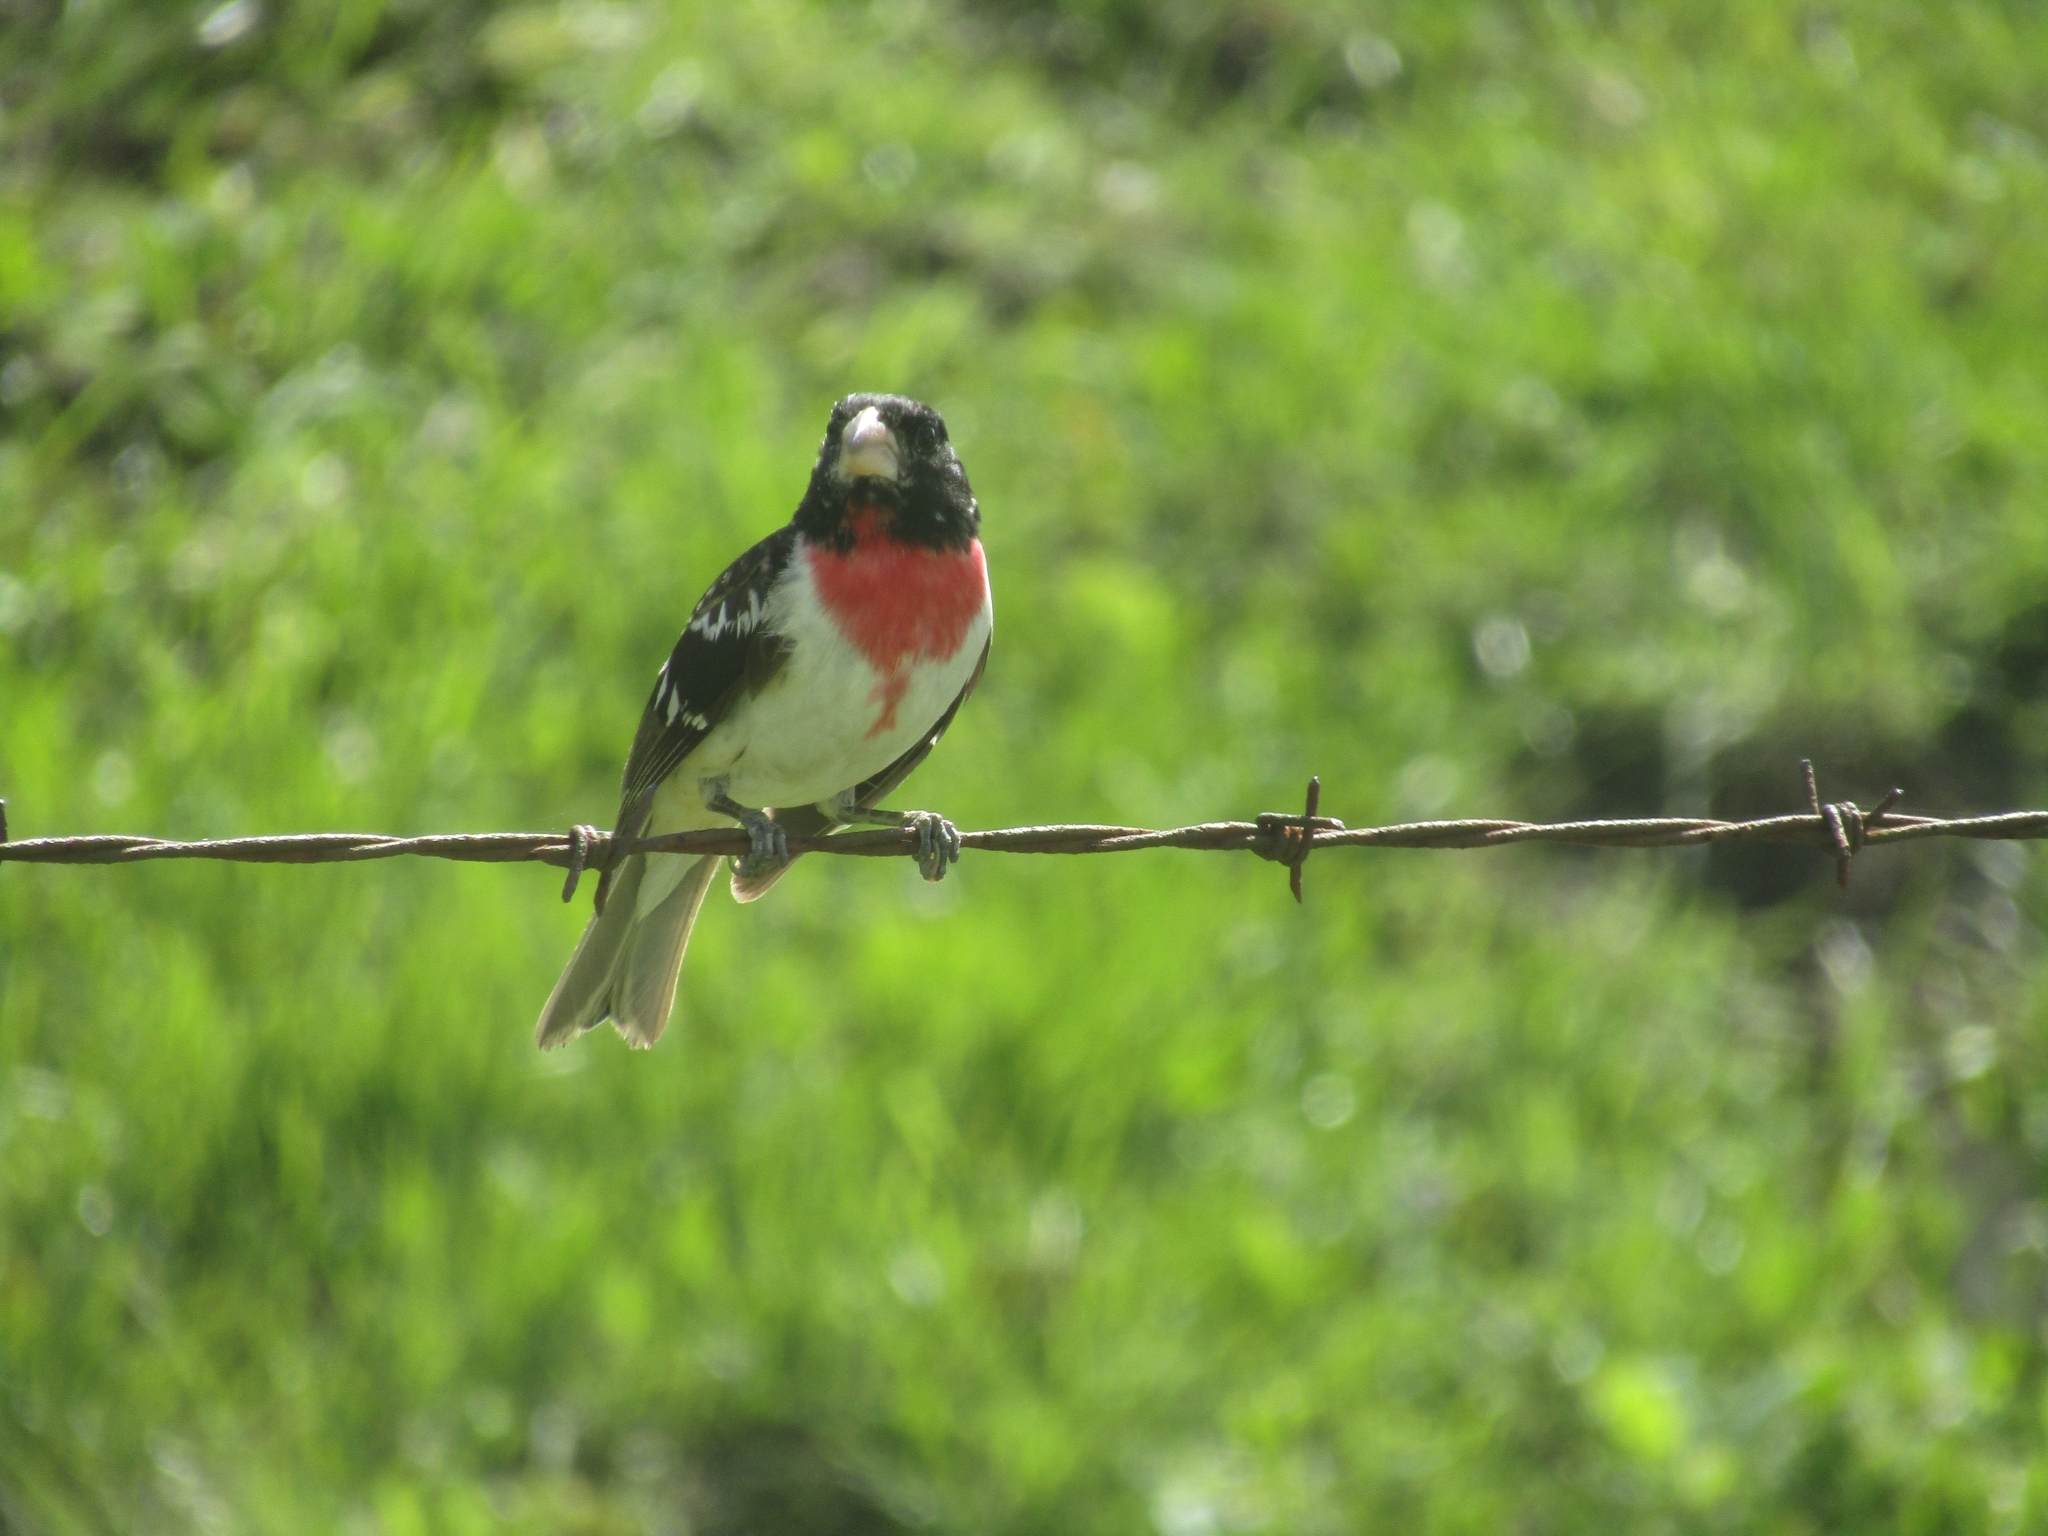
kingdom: Animalia
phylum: Chordata
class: Aves
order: Passeriformes
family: Cardinalidae
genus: Pheucticus
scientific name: Pheucticus ludovicianus
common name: Rose-breasted grosbeak
